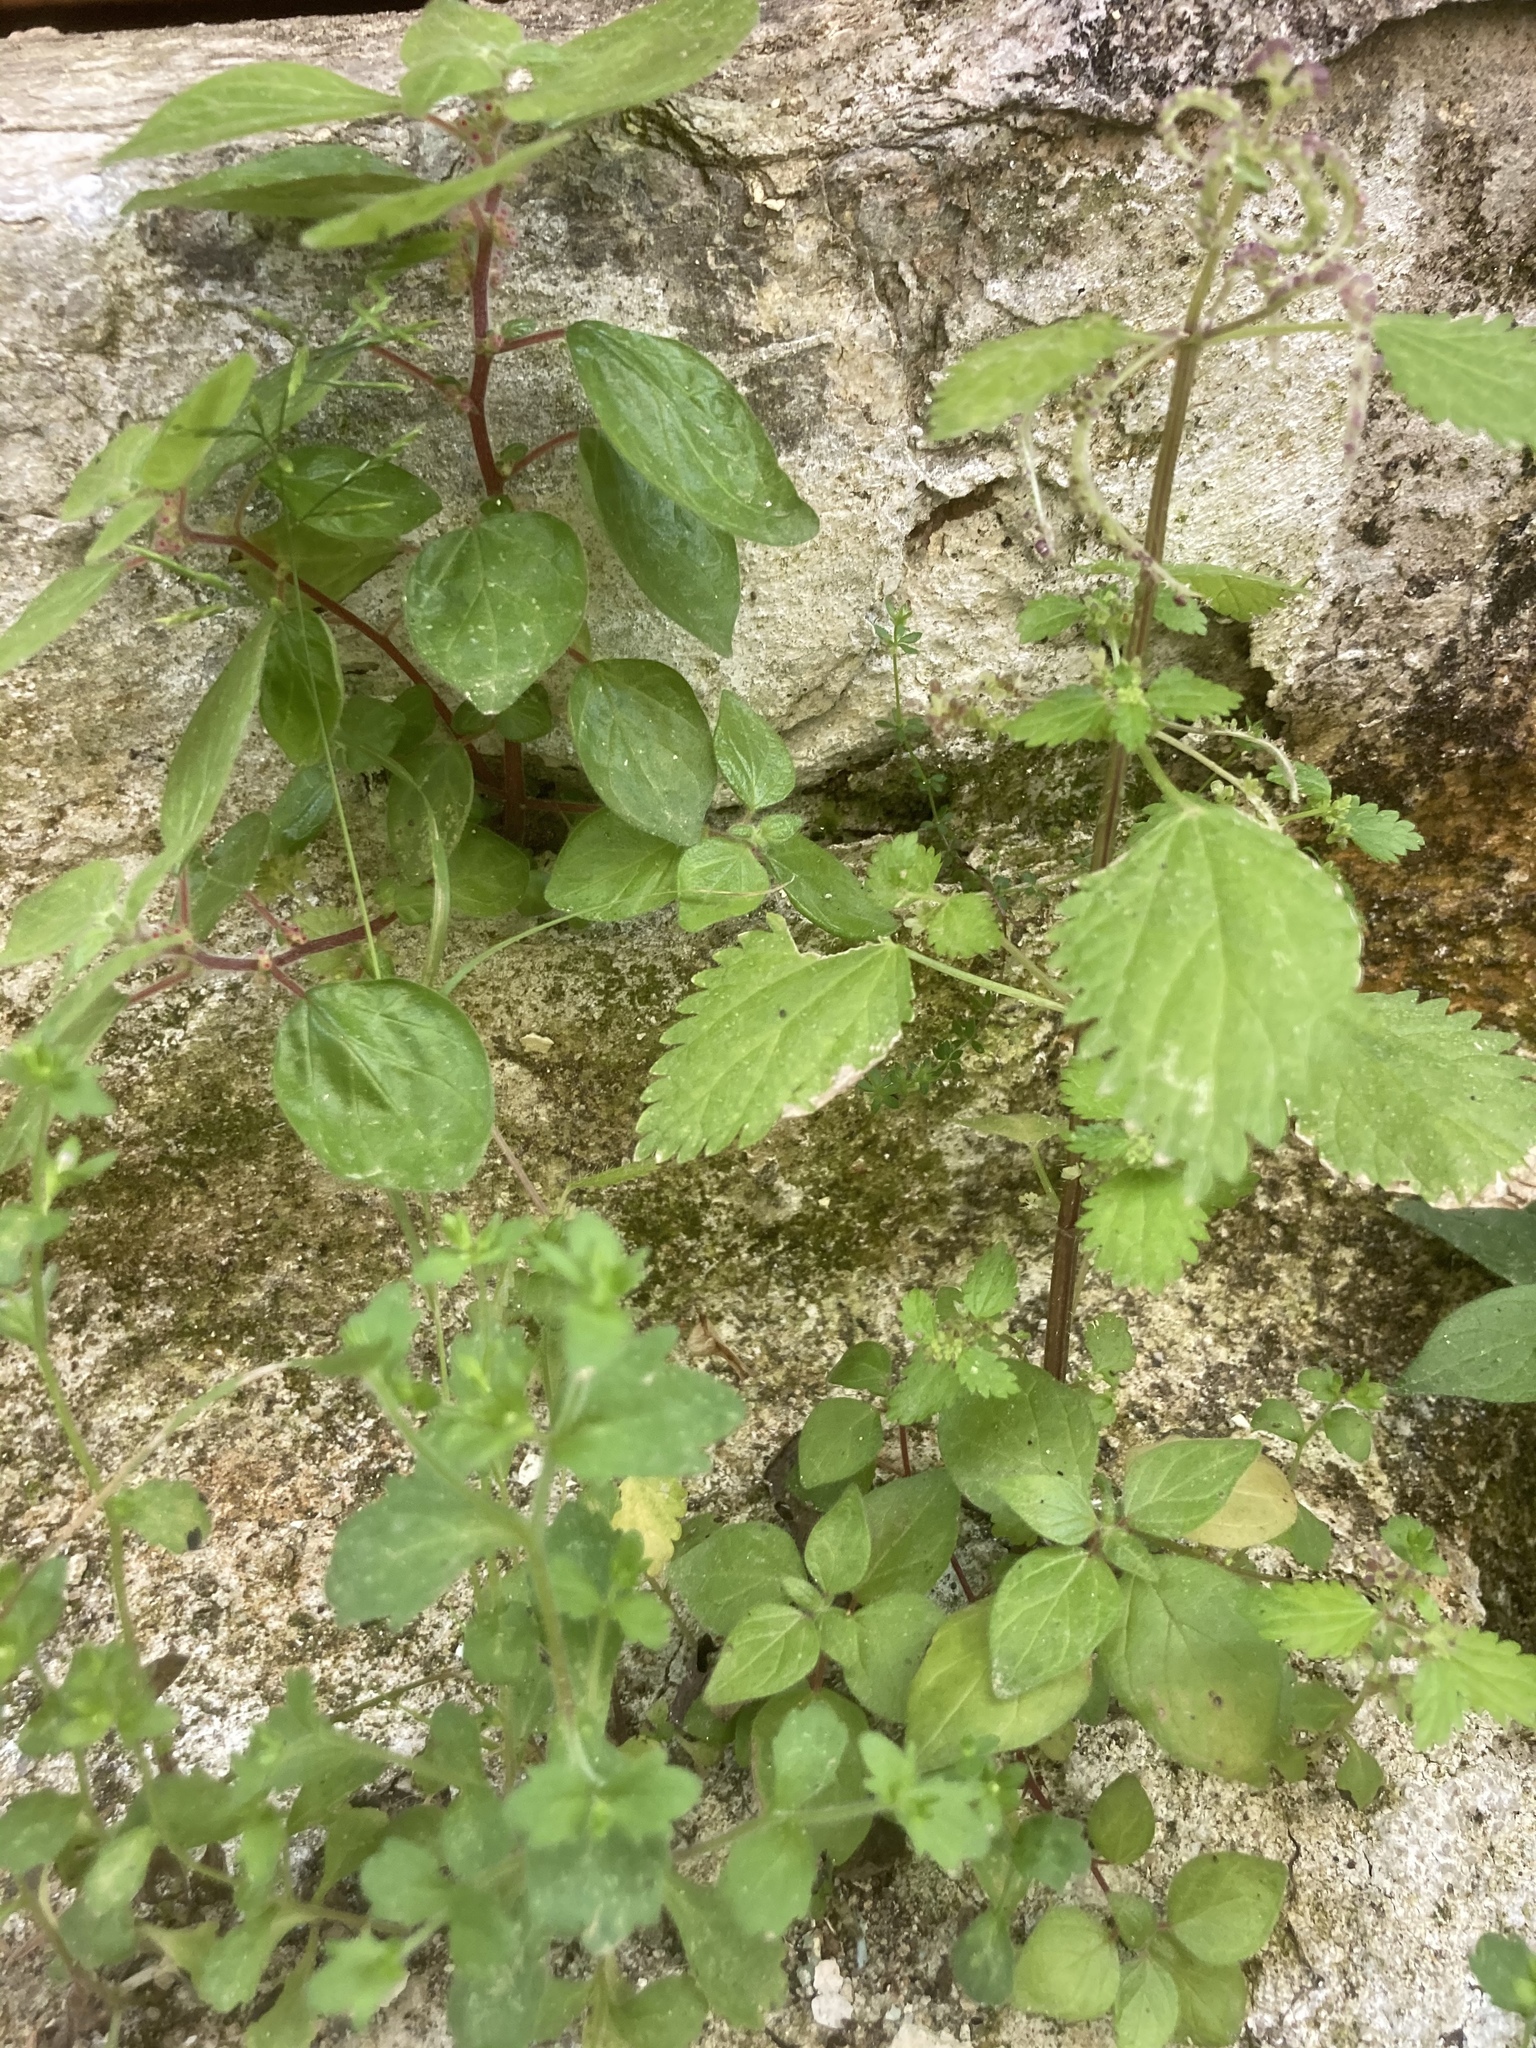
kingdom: Plantae
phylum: Tracheophyta
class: Magnoliopsida
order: Rosales
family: Urticaceae
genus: Urtica
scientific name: Urtica membranacea
